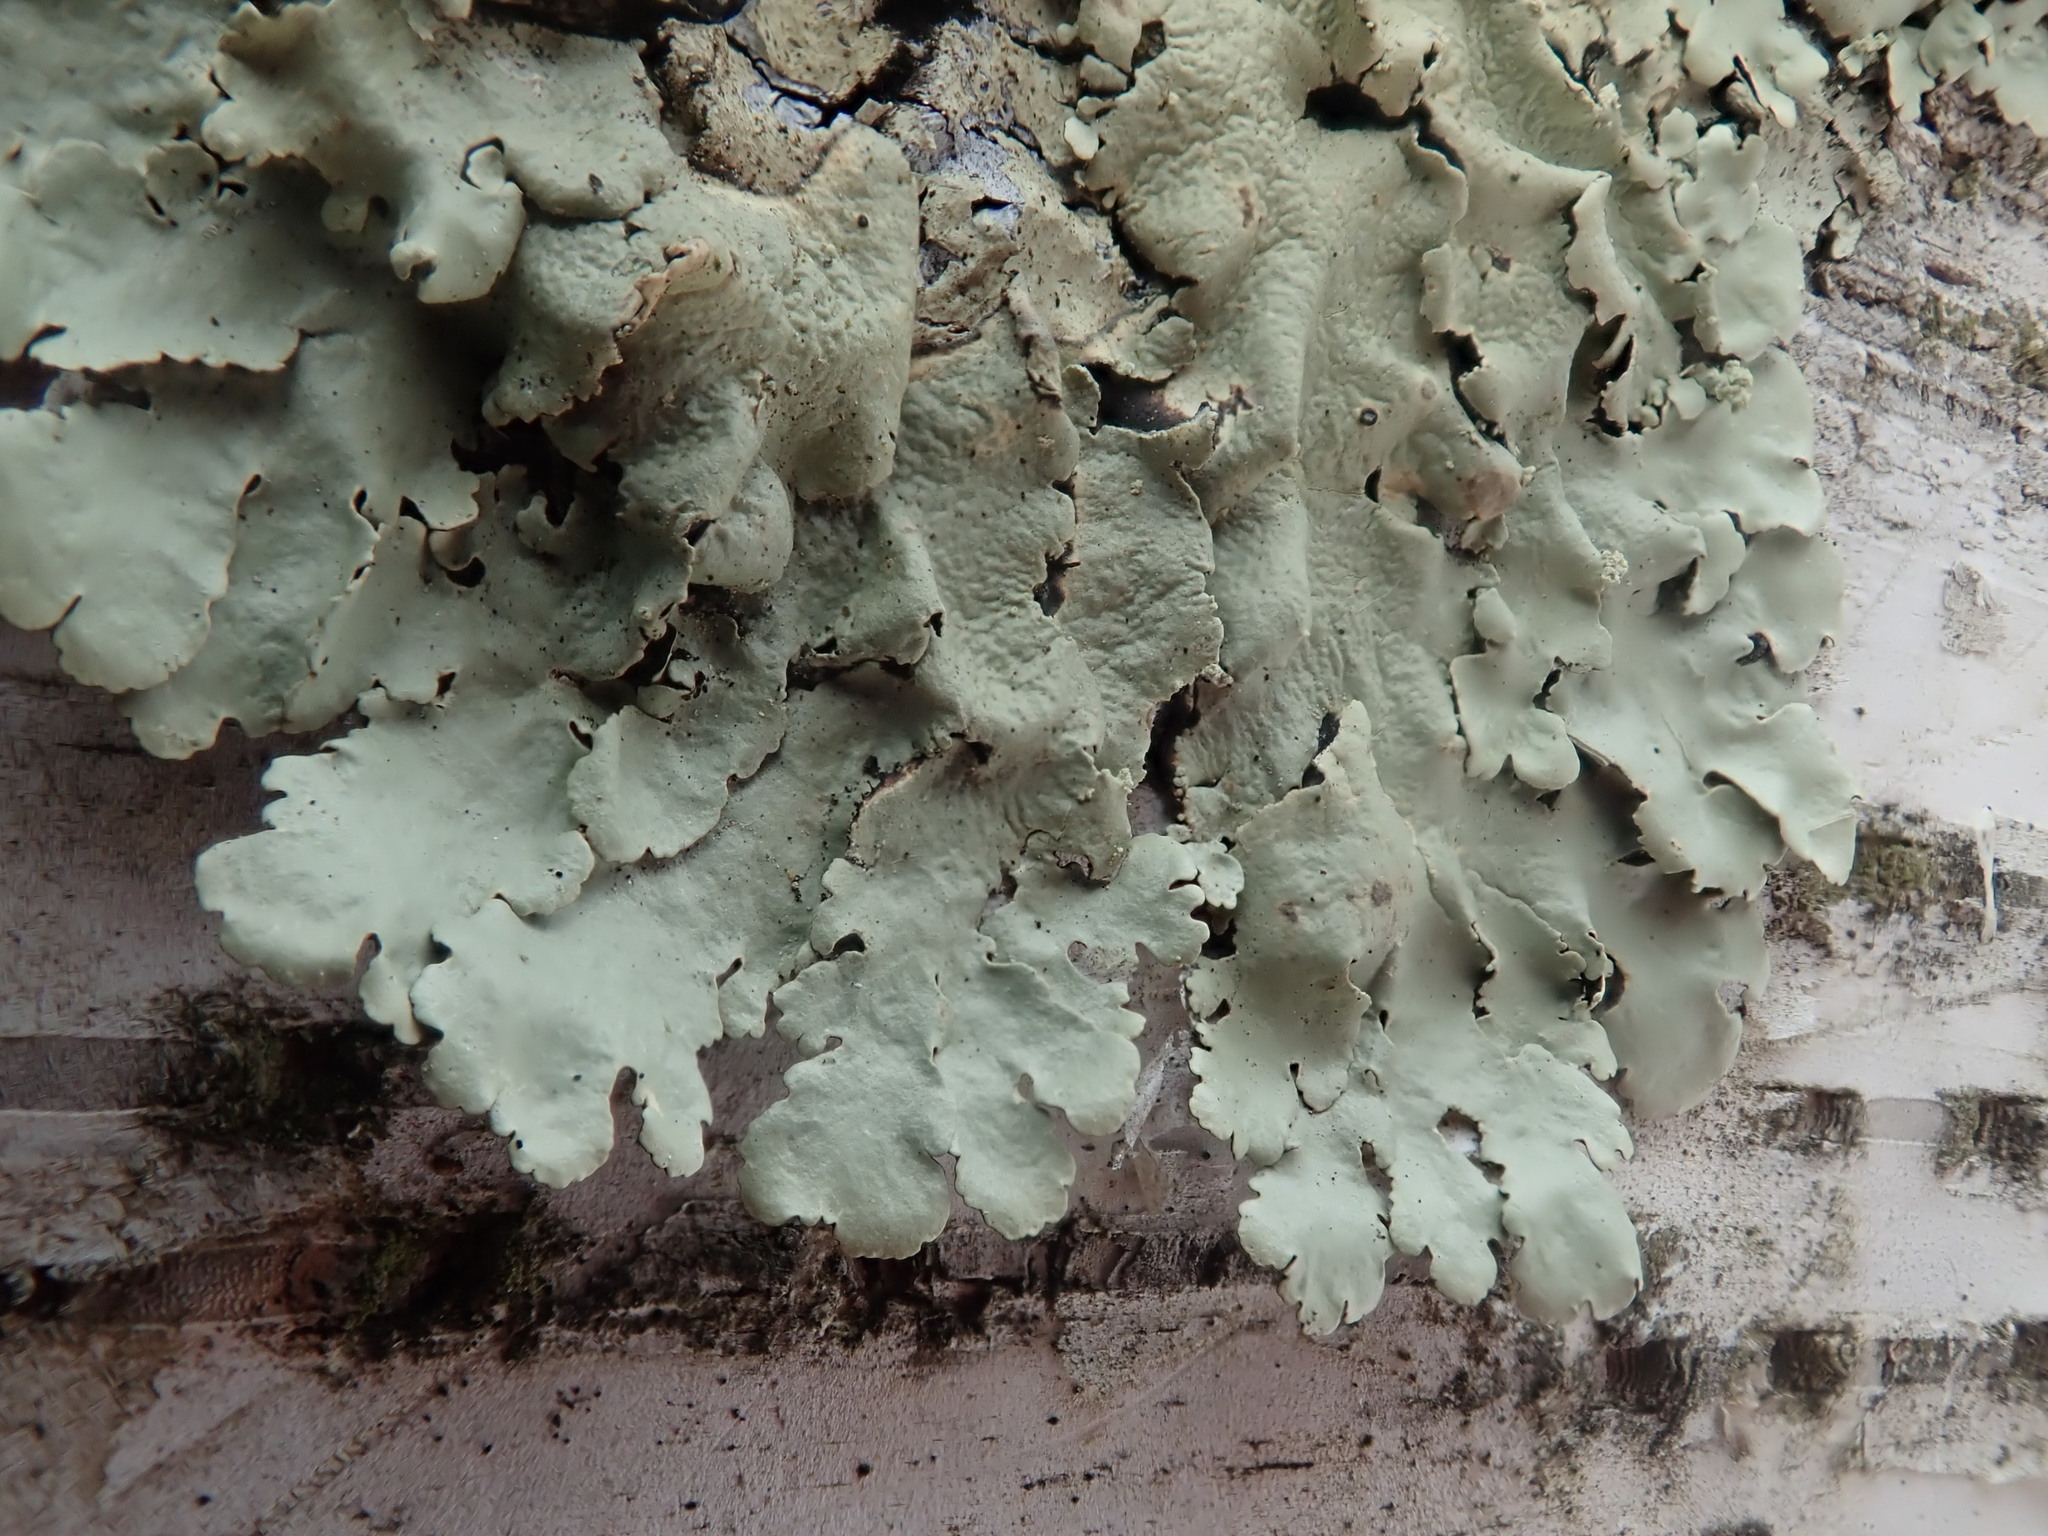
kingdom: Fungi
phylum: Ascomycota
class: Lecanoromycetes
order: Lecanorales
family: Parmeliaceae
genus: Flavoparmelia
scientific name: Flavoparmelia caperata
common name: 40-mile per hour lichen
